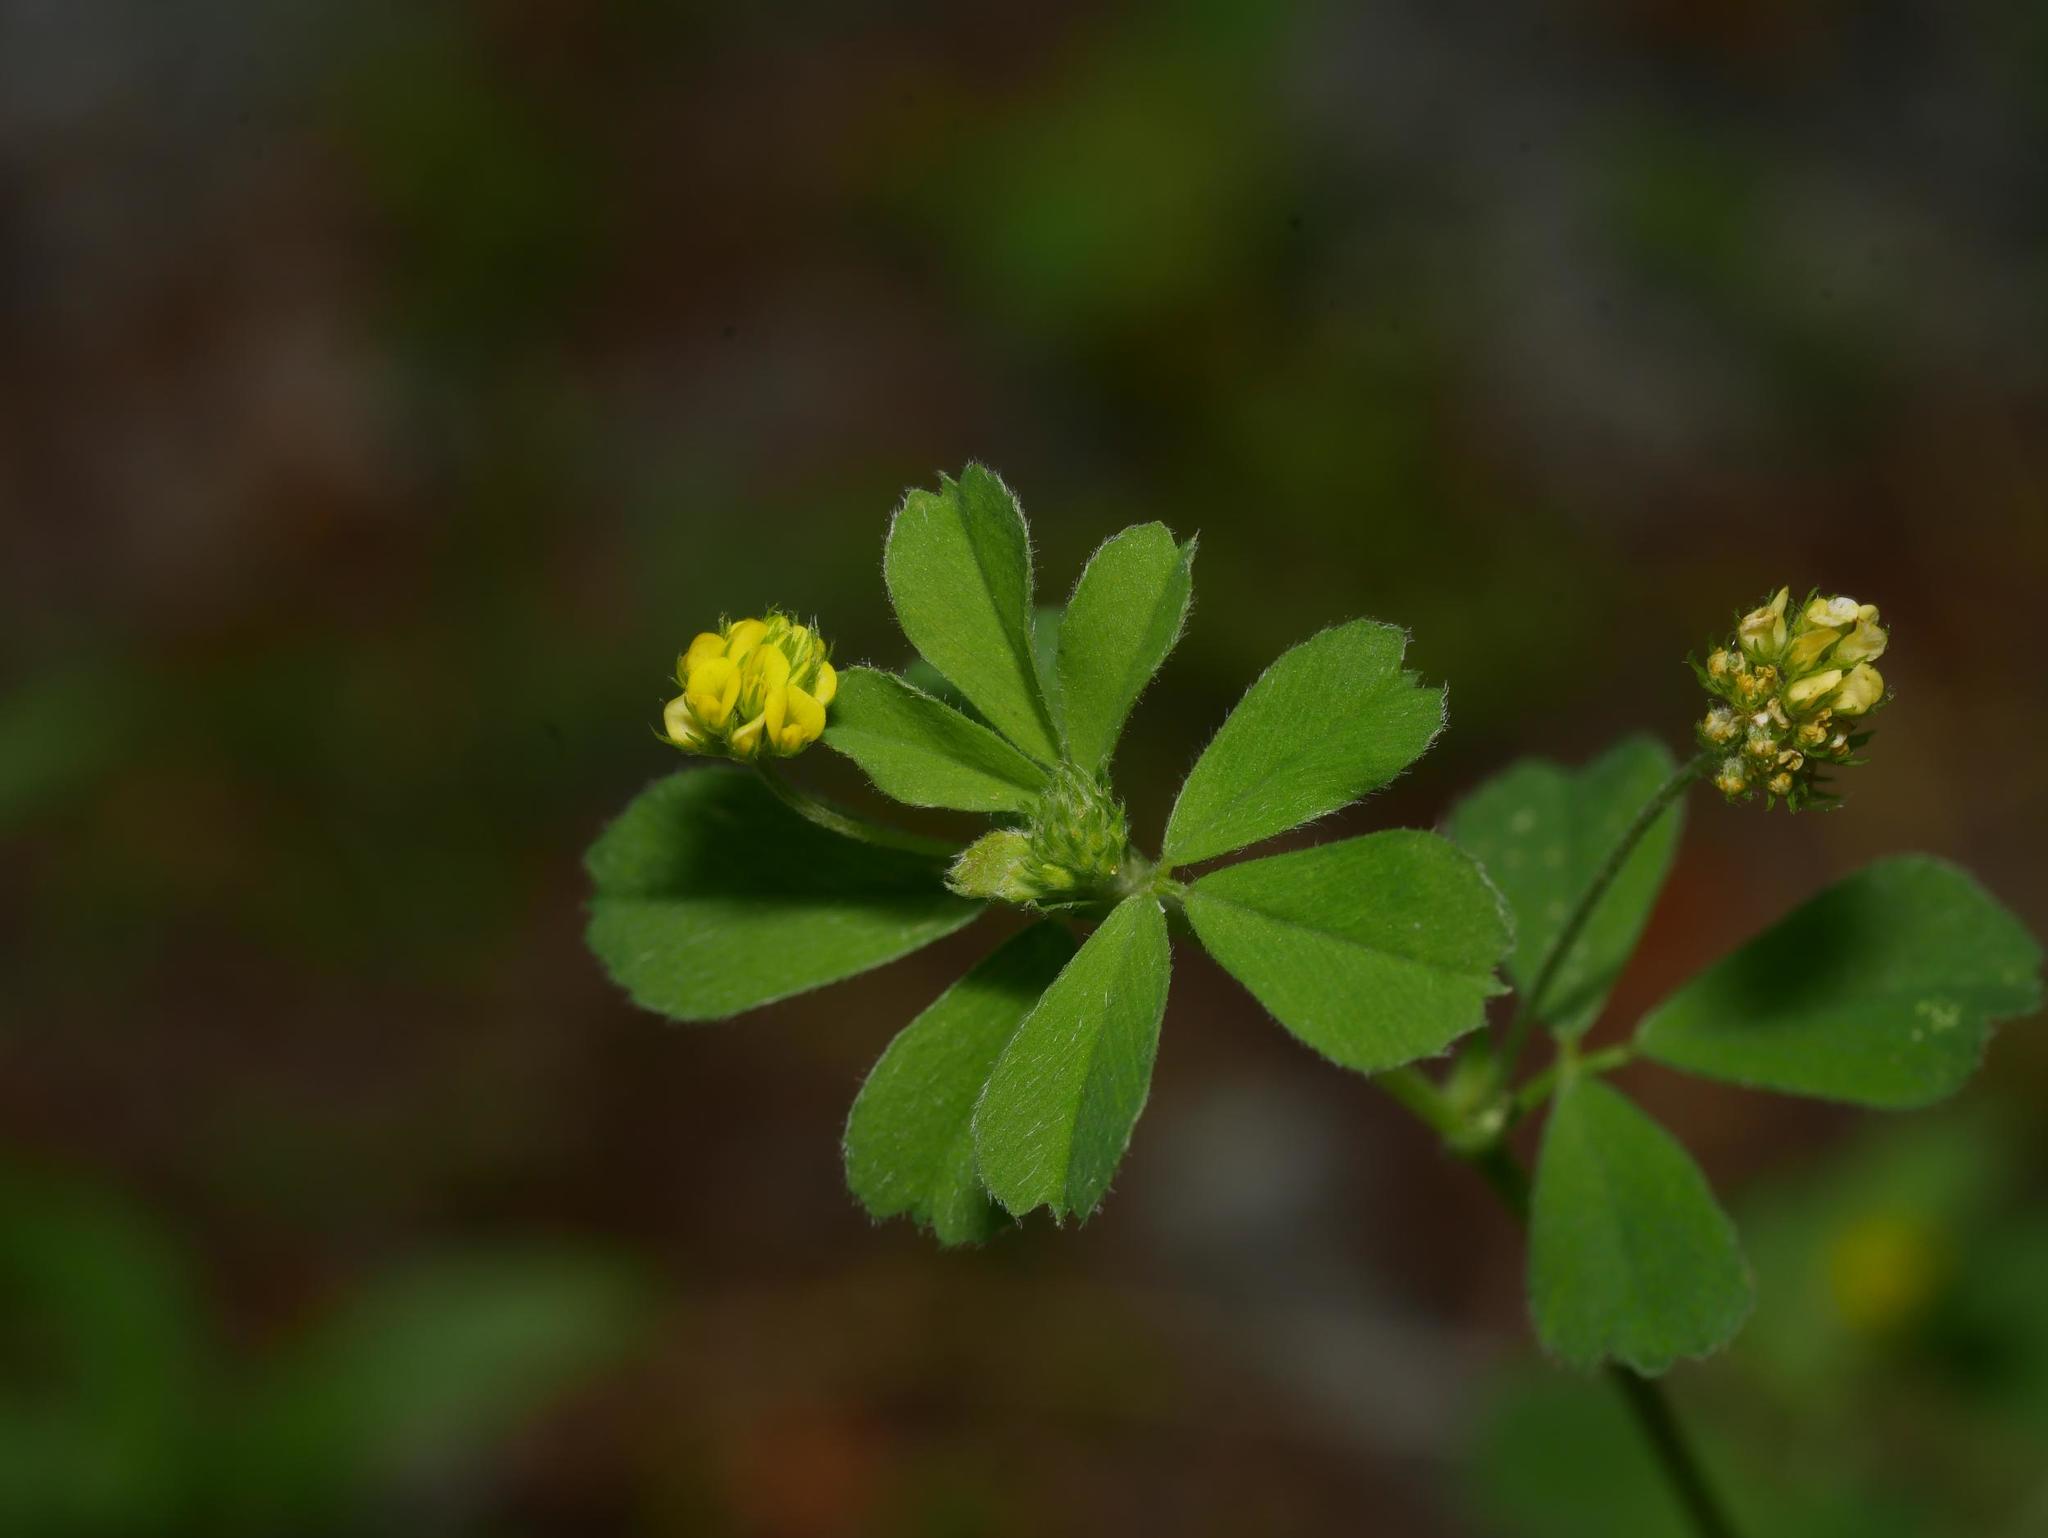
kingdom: Plantae
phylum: Tracheophyta
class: Magnoliopsida
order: Fabales
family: Fabaceae
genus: Medicago
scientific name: Medicago lupulina
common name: Black medick
